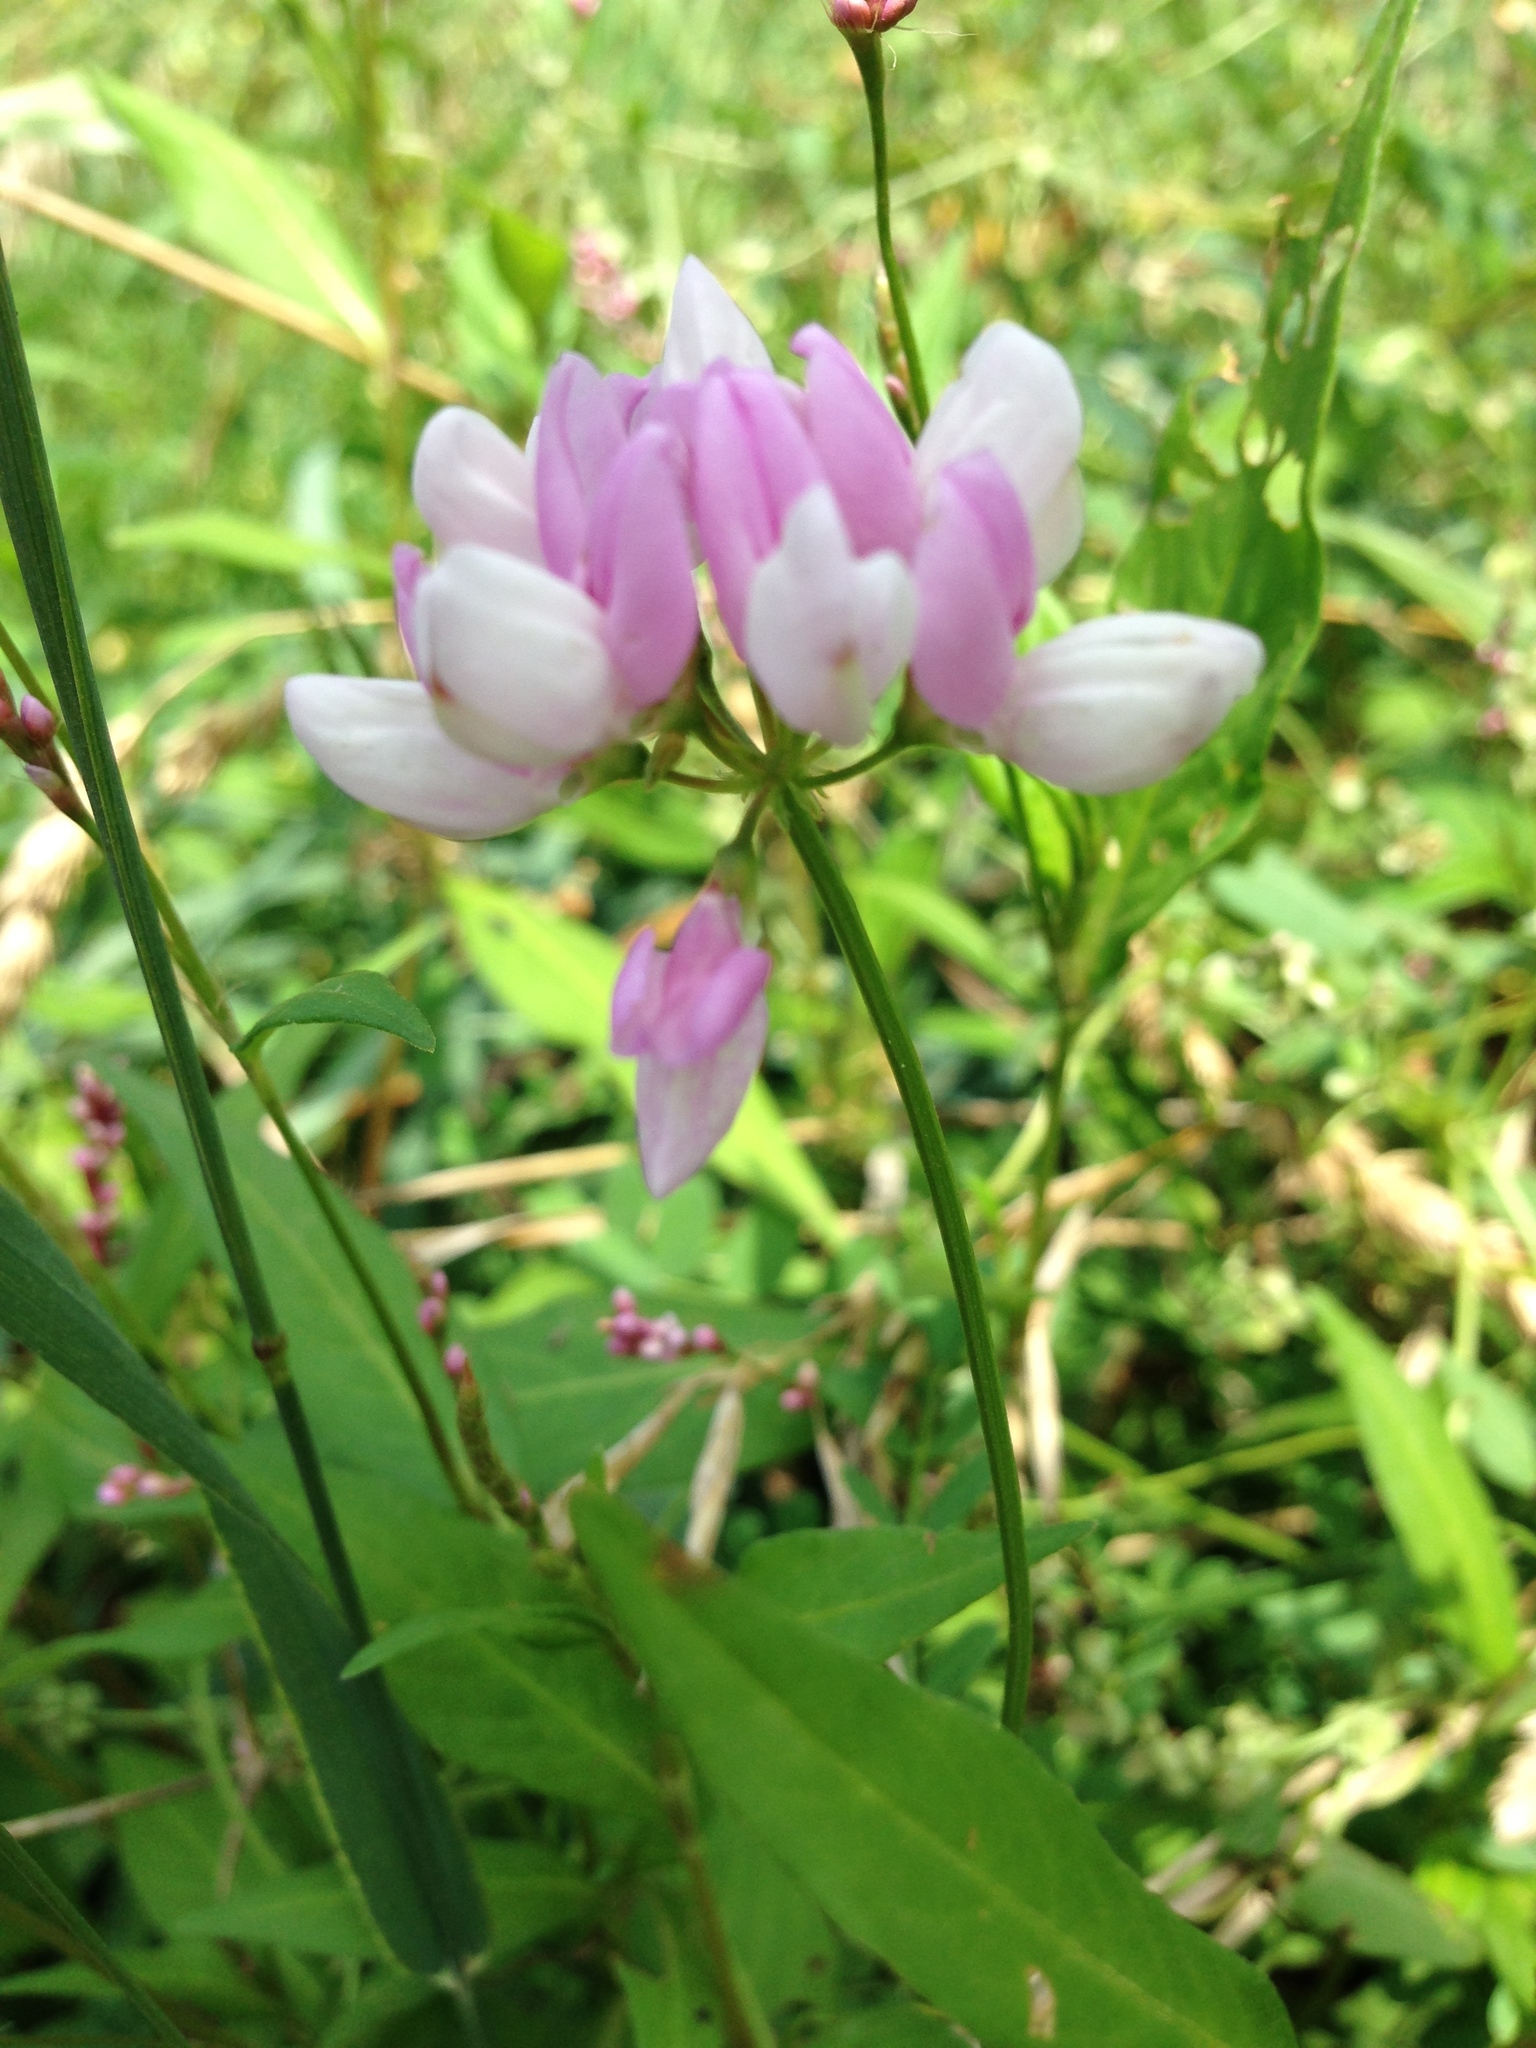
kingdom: Plantae
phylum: Tracheophyta
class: Magnoliopsida
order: Fabales
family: Fabaceae
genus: Coronilla
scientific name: Coronilla varia
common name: Crownvetch
